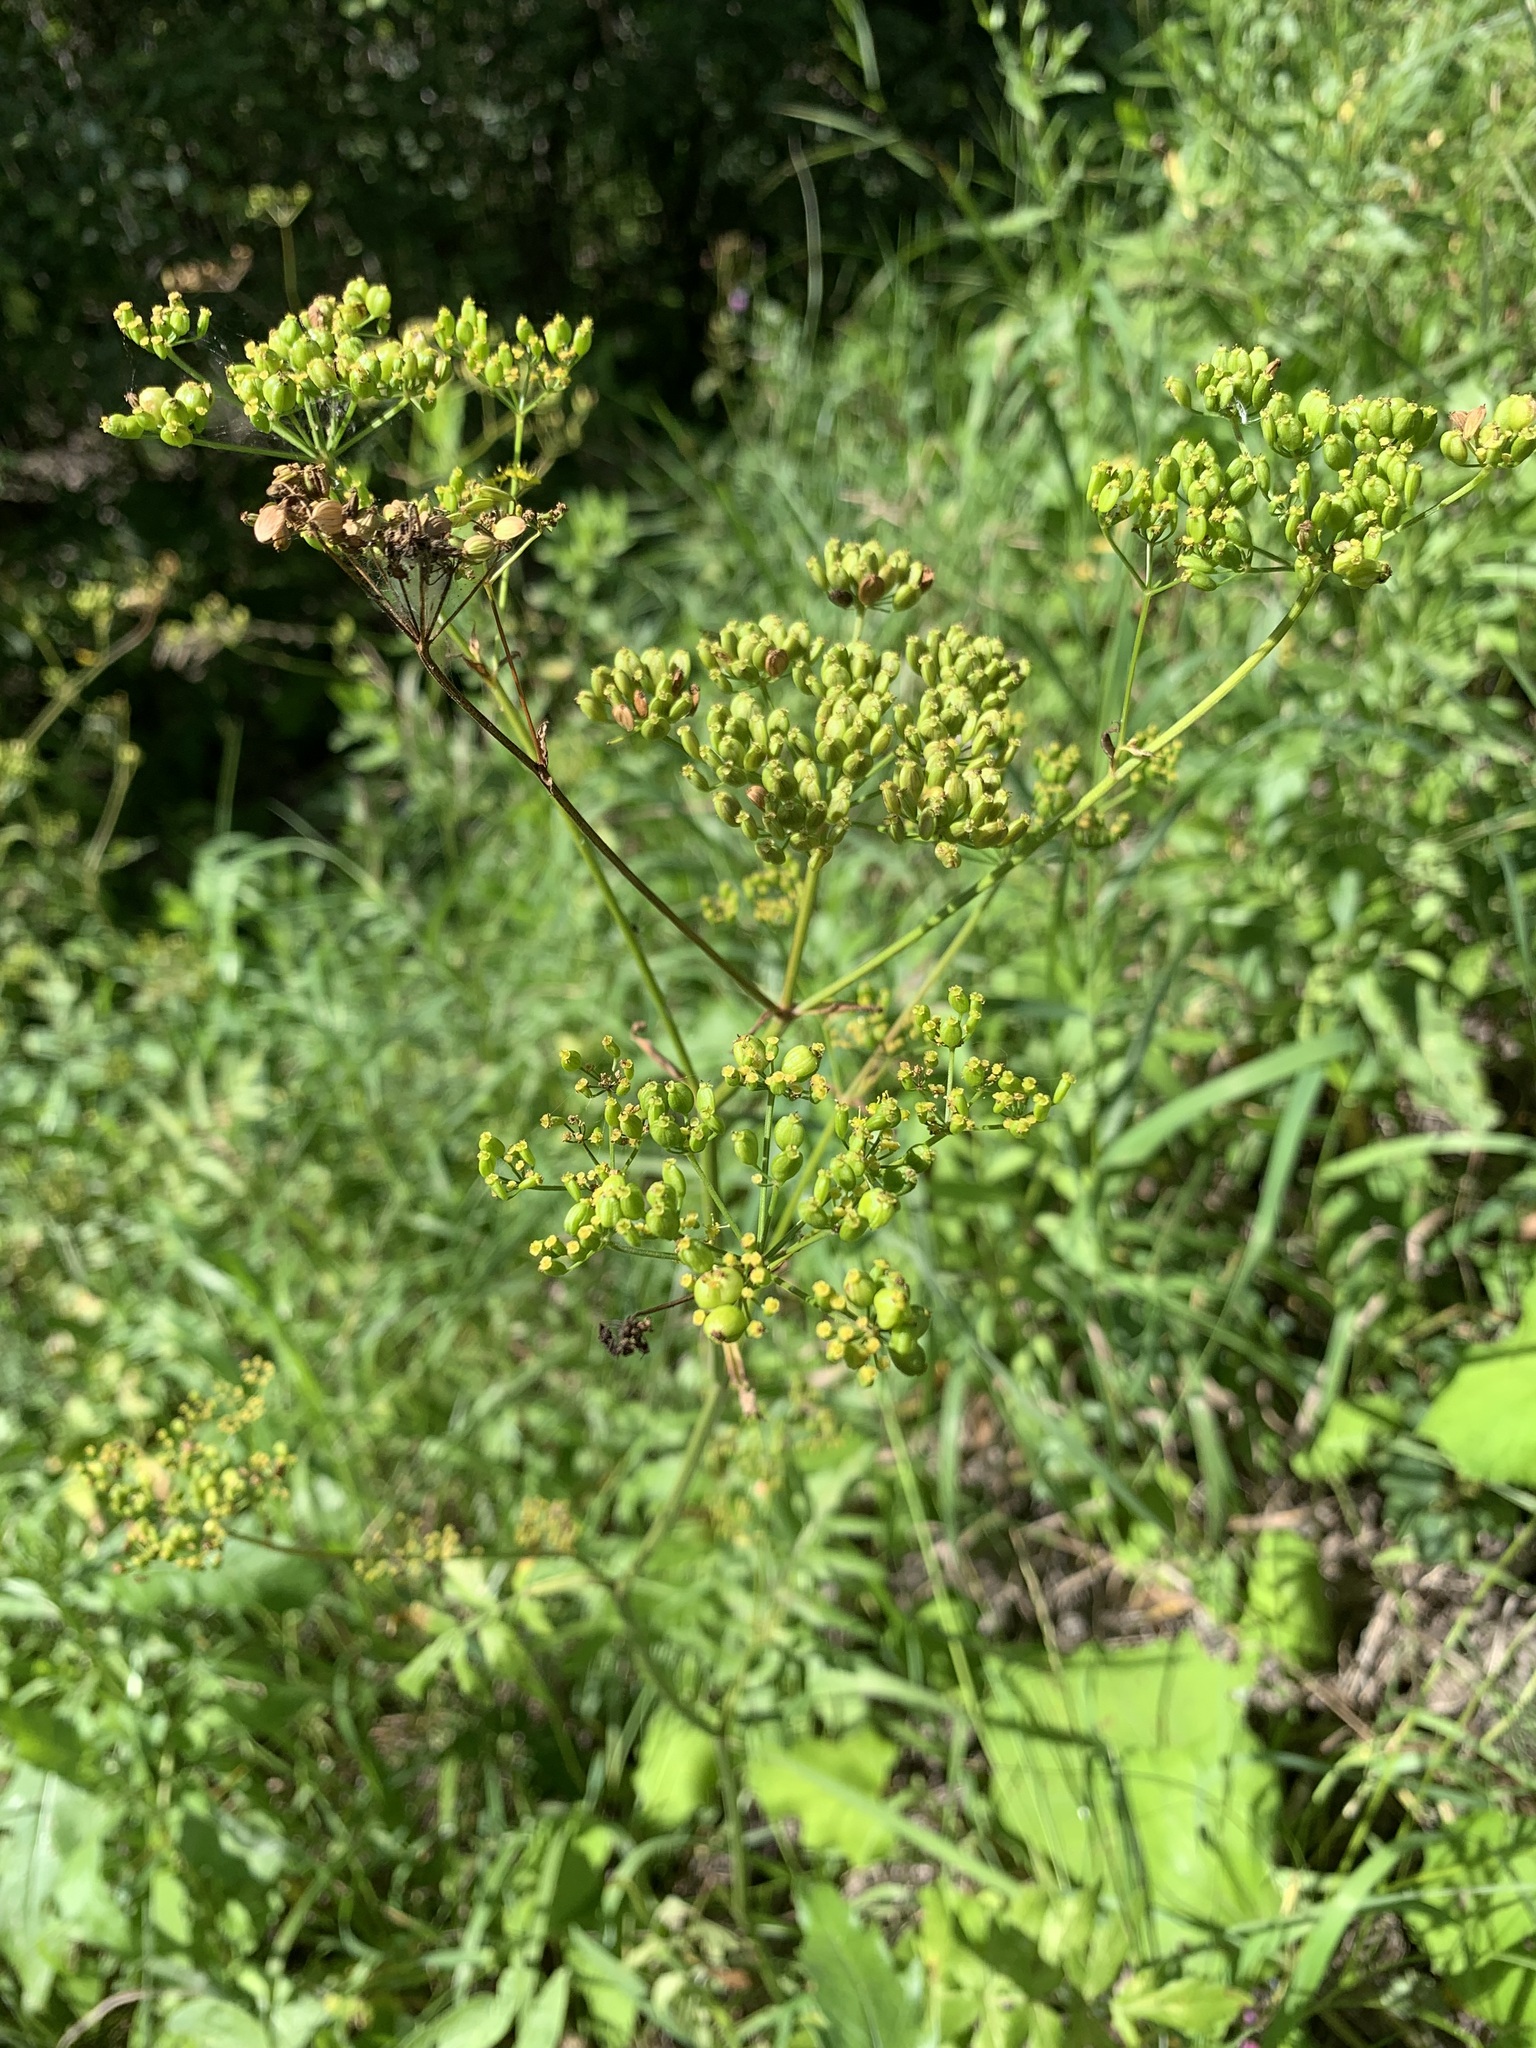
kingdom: Plantae
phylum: Tracheophyta
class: Magnoliopsida
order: Apiales
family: Apiaceae
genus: Pastinaca
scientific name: Pastinaca sativa
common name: Wild parsnip
